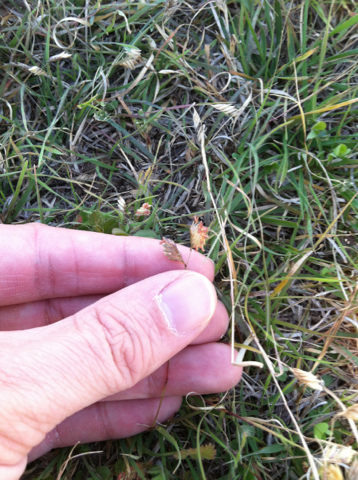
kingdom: Plantae
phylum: Tracheophyta
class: Liliopsida
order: Poales
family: Poaceae
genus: Bouteloua
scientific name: Bouteloua dactyloides
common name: Buffalo grass
